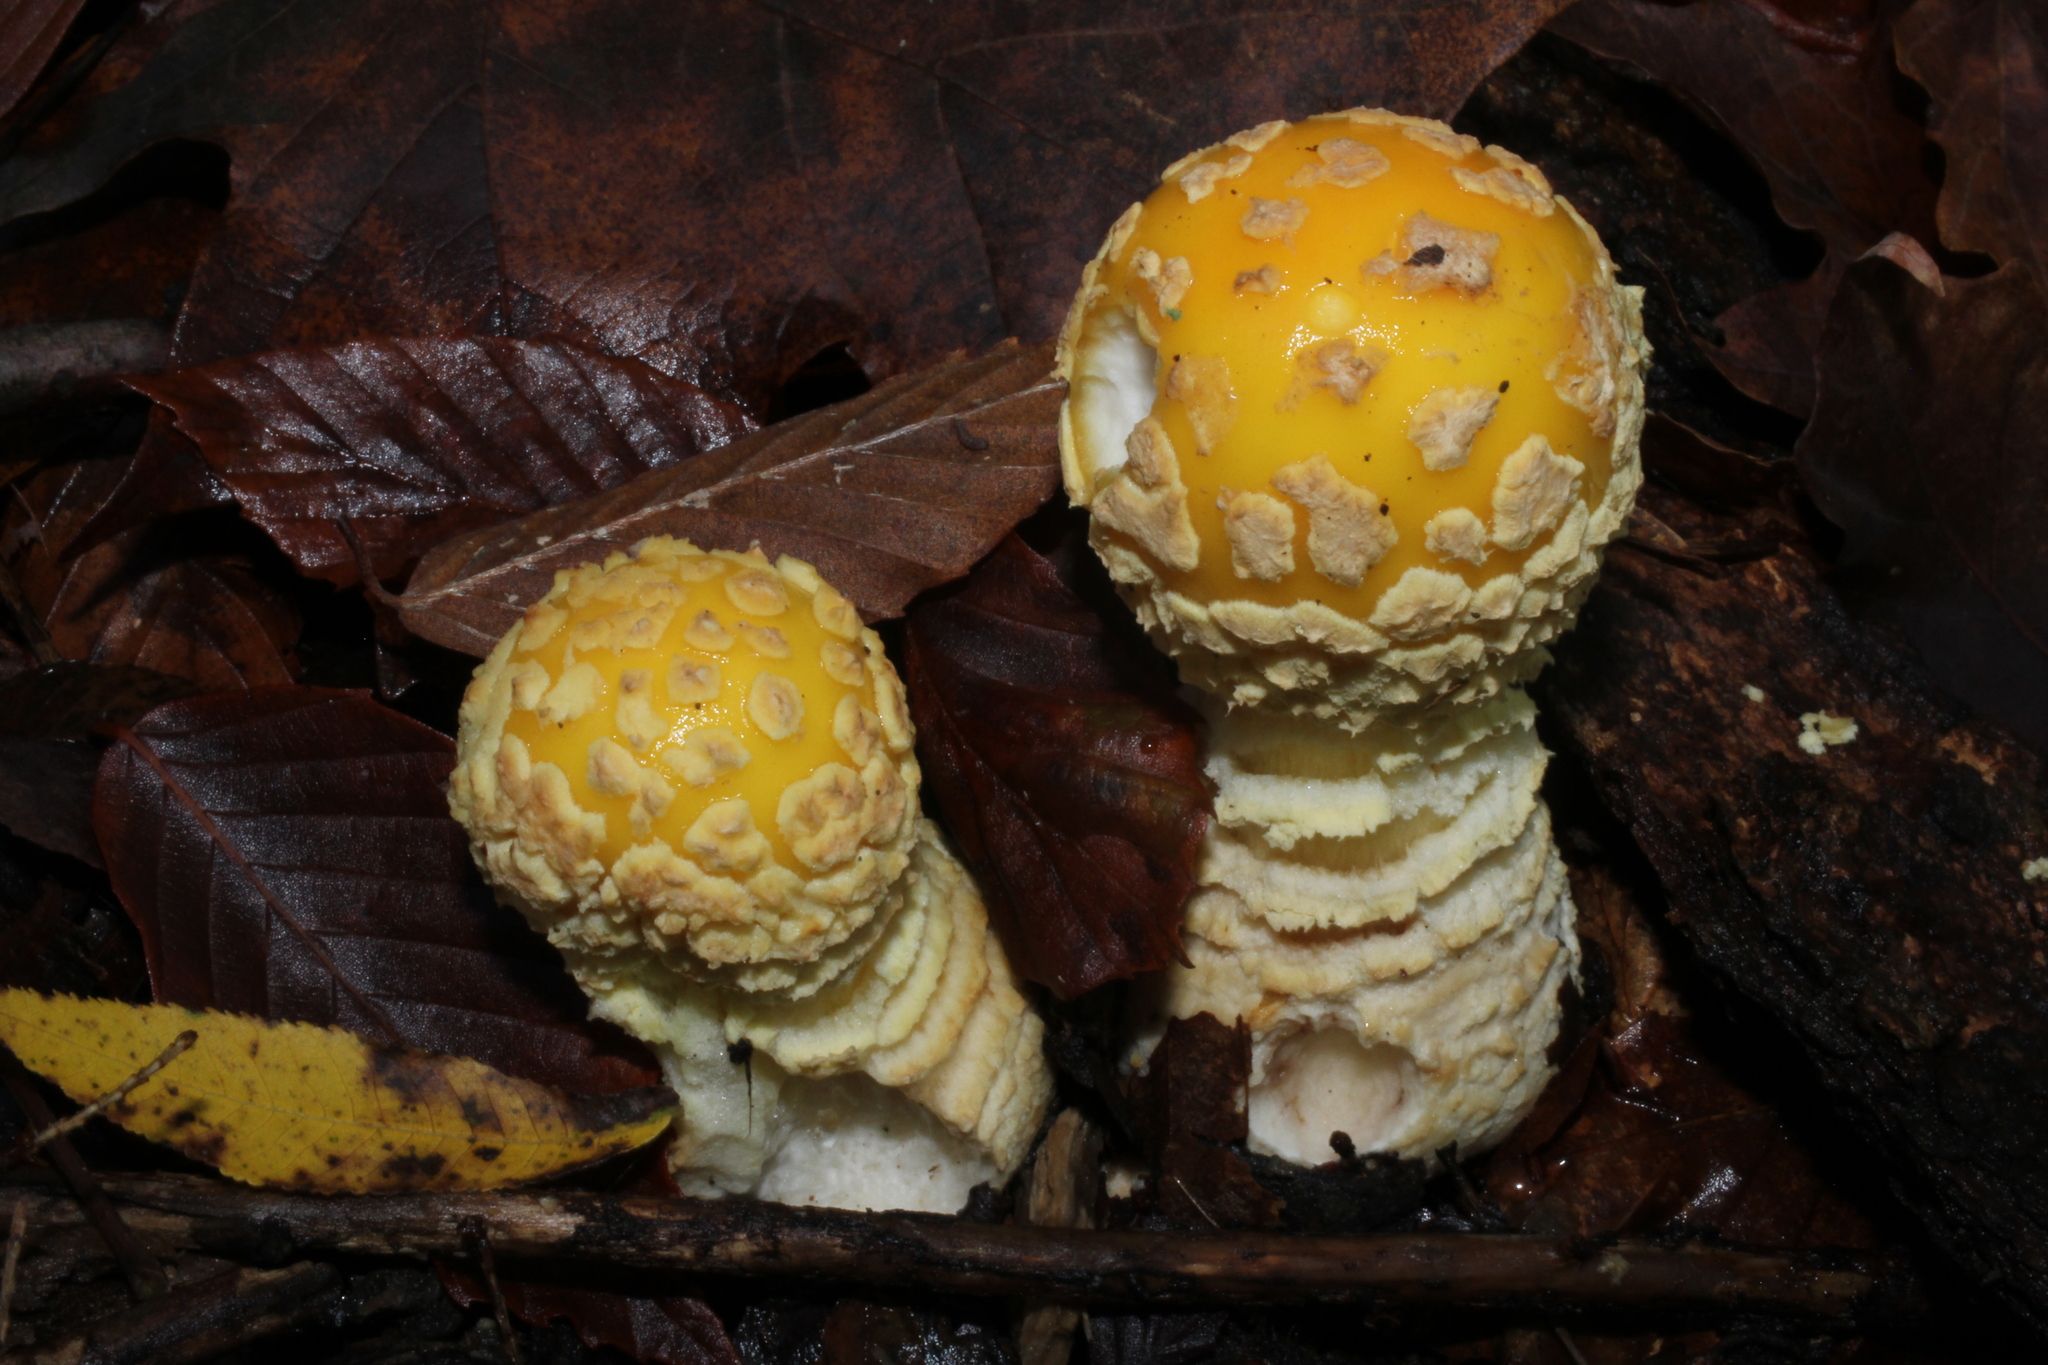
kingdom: Fungi
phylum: Basidiomycota
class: Agaricomycetes
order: Agaricales
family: Amanitaceae
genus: Amanita
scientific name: Amanita muscaria
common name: Fly agaric
